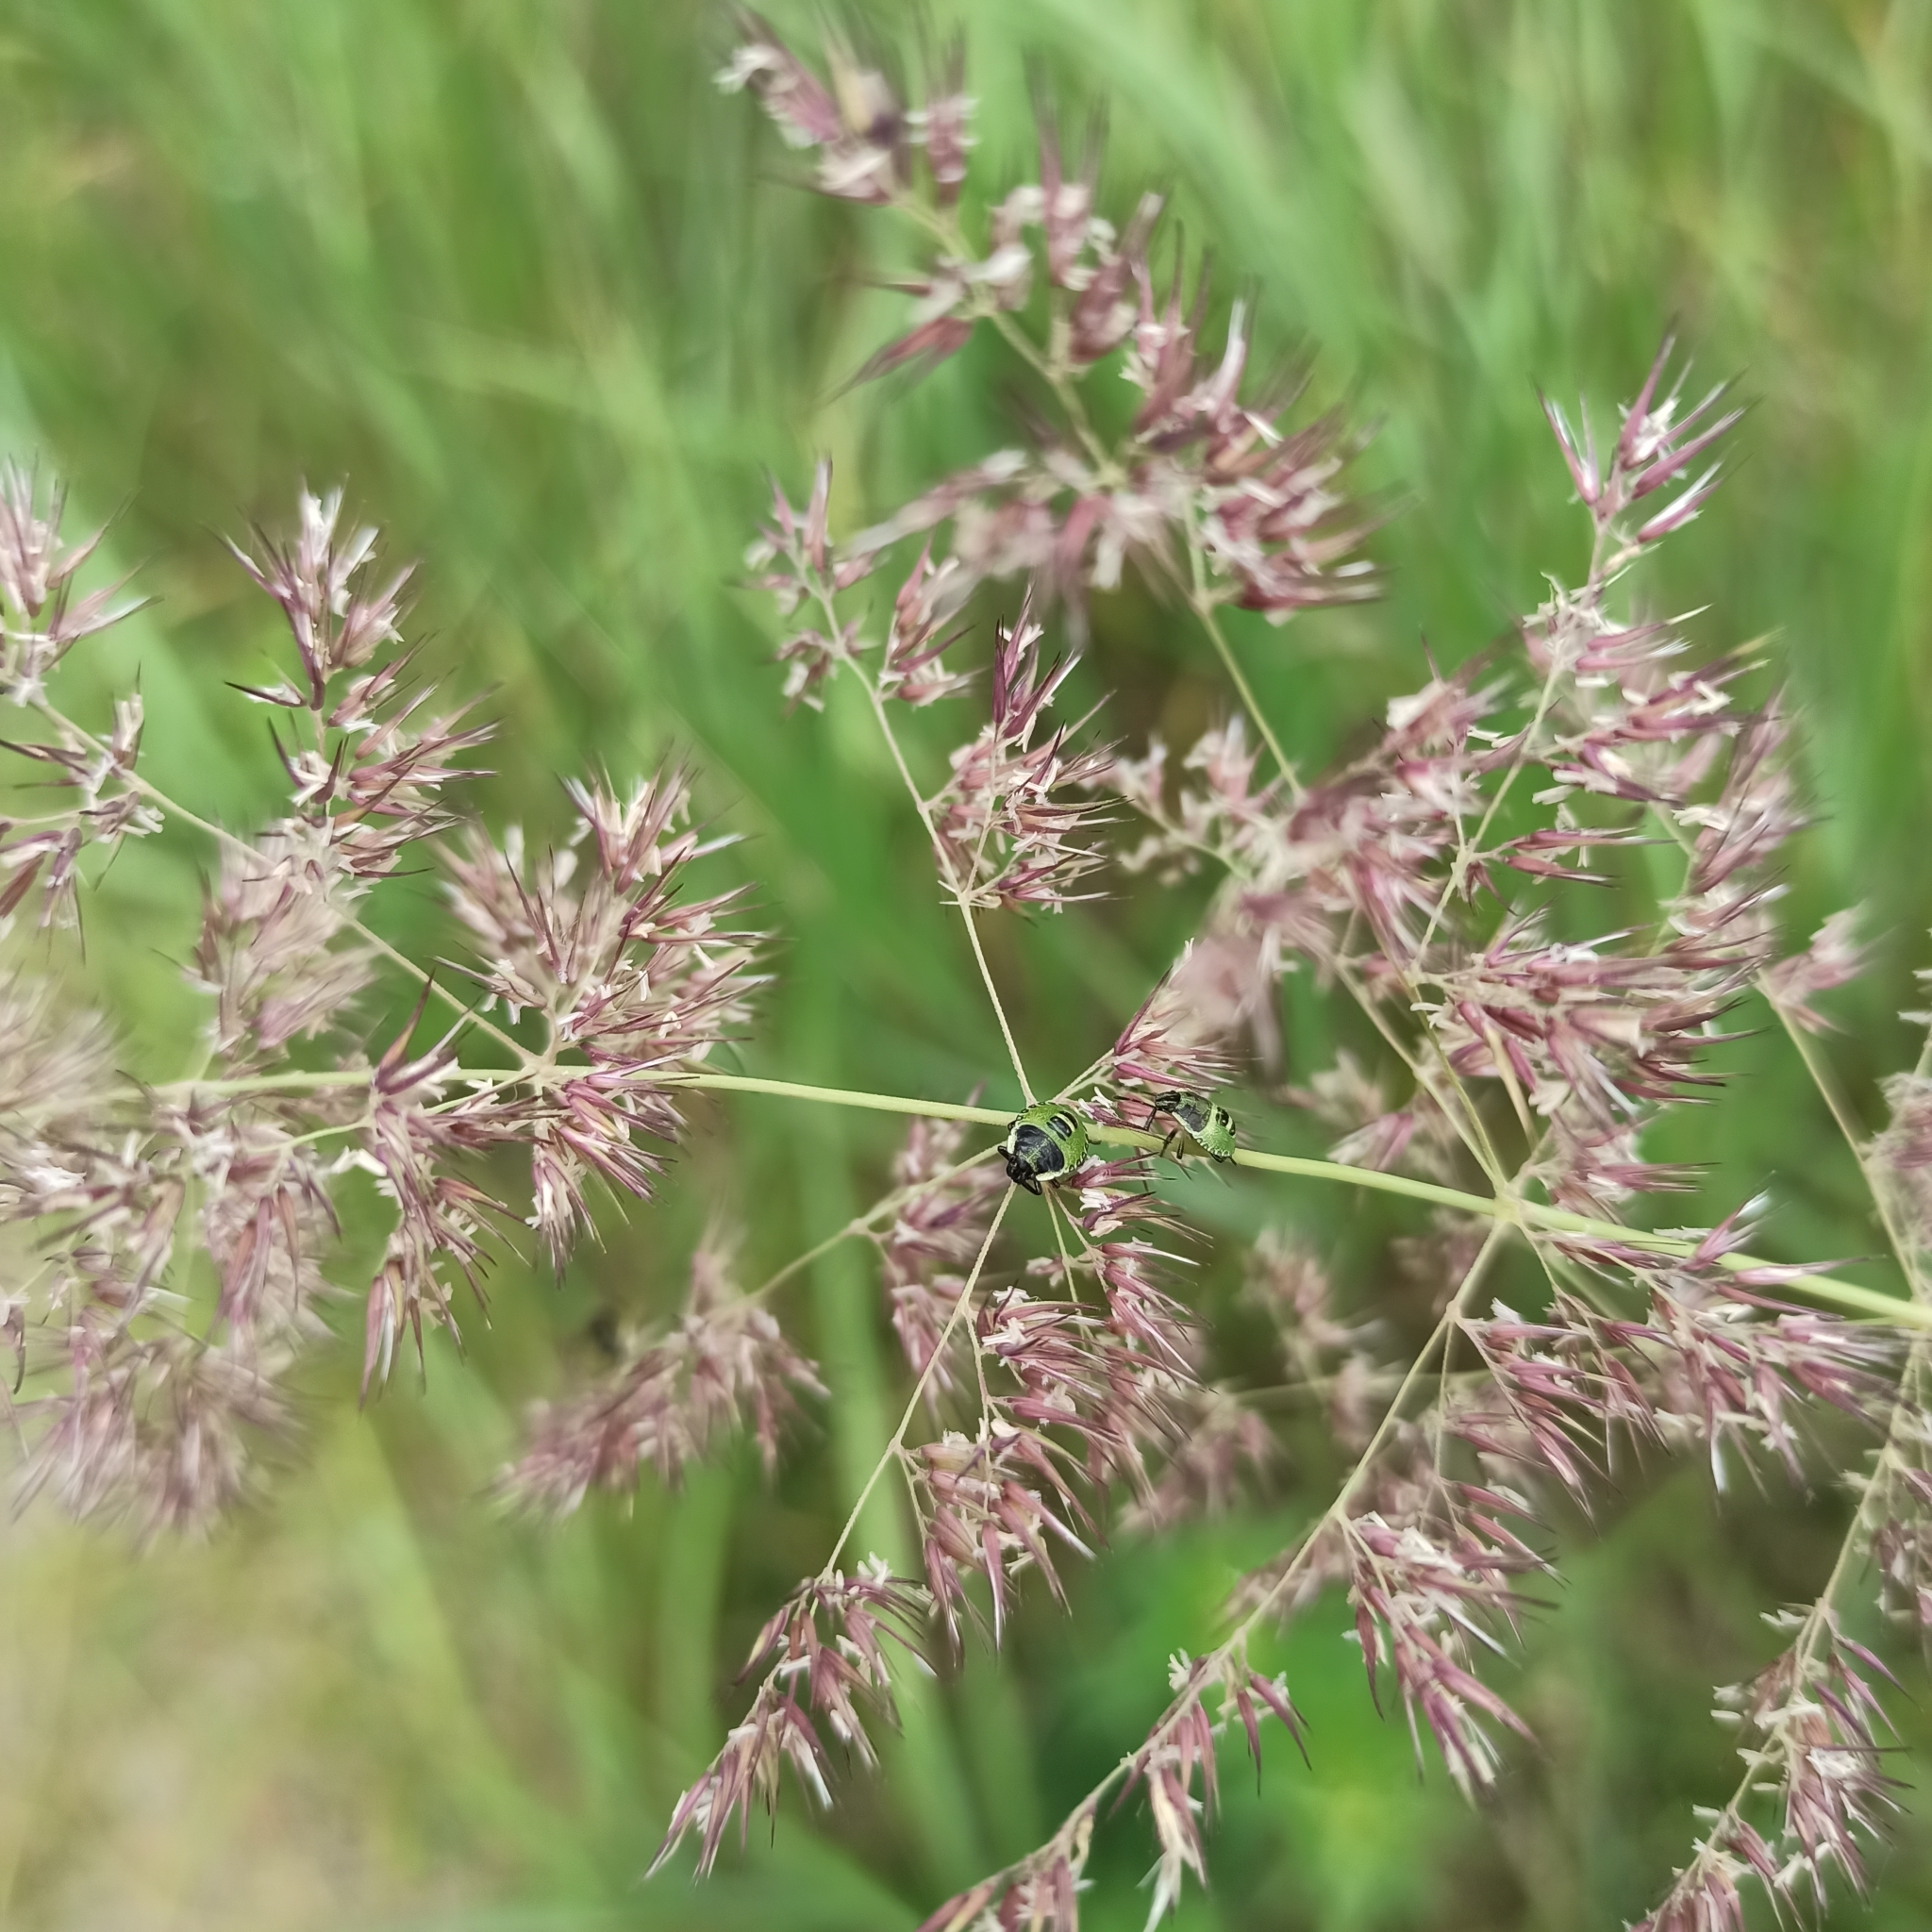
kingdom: Plantae
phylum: Tracheophyta
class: Liliopsida
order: Poales
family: Poaceae
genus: Calamagrostis
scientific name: Calamagrostis epigejos
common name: Wood small-reed
